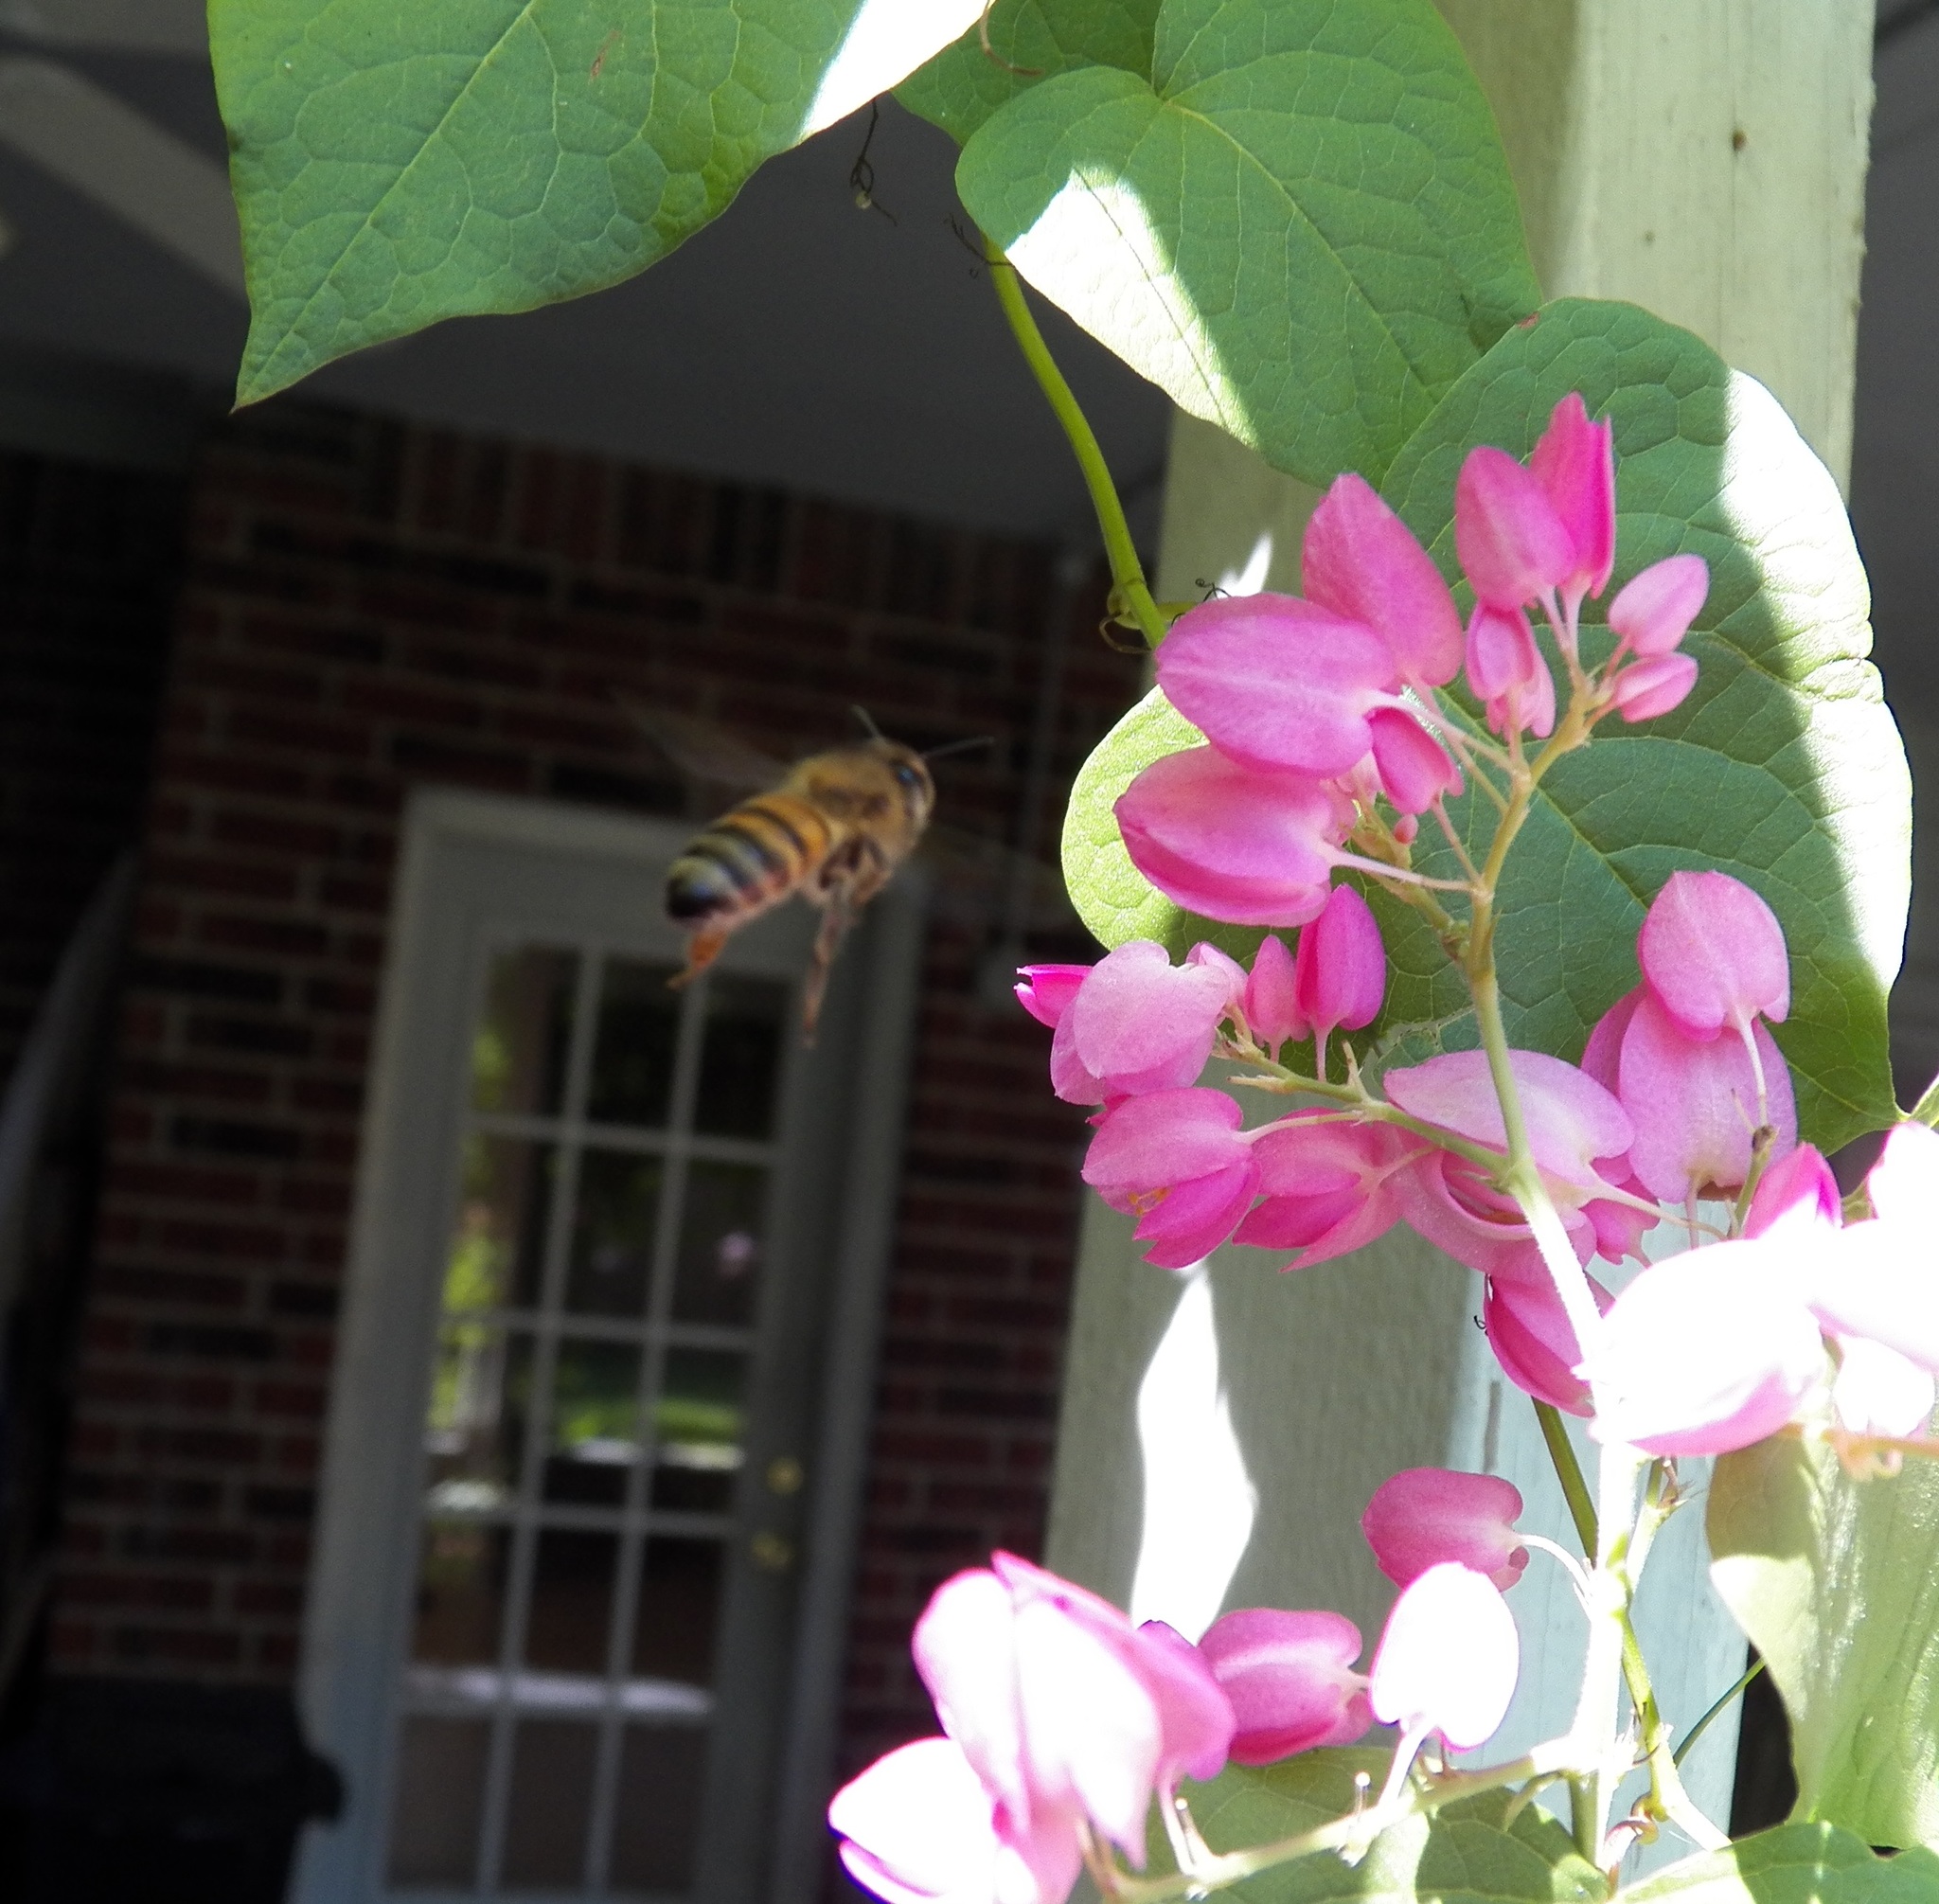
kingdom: Animalia
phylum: Arthropoda
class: Insecta
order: Hymenoptera
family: Apidae
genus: Apis
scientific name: Apis mellifera
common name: Honey bee
